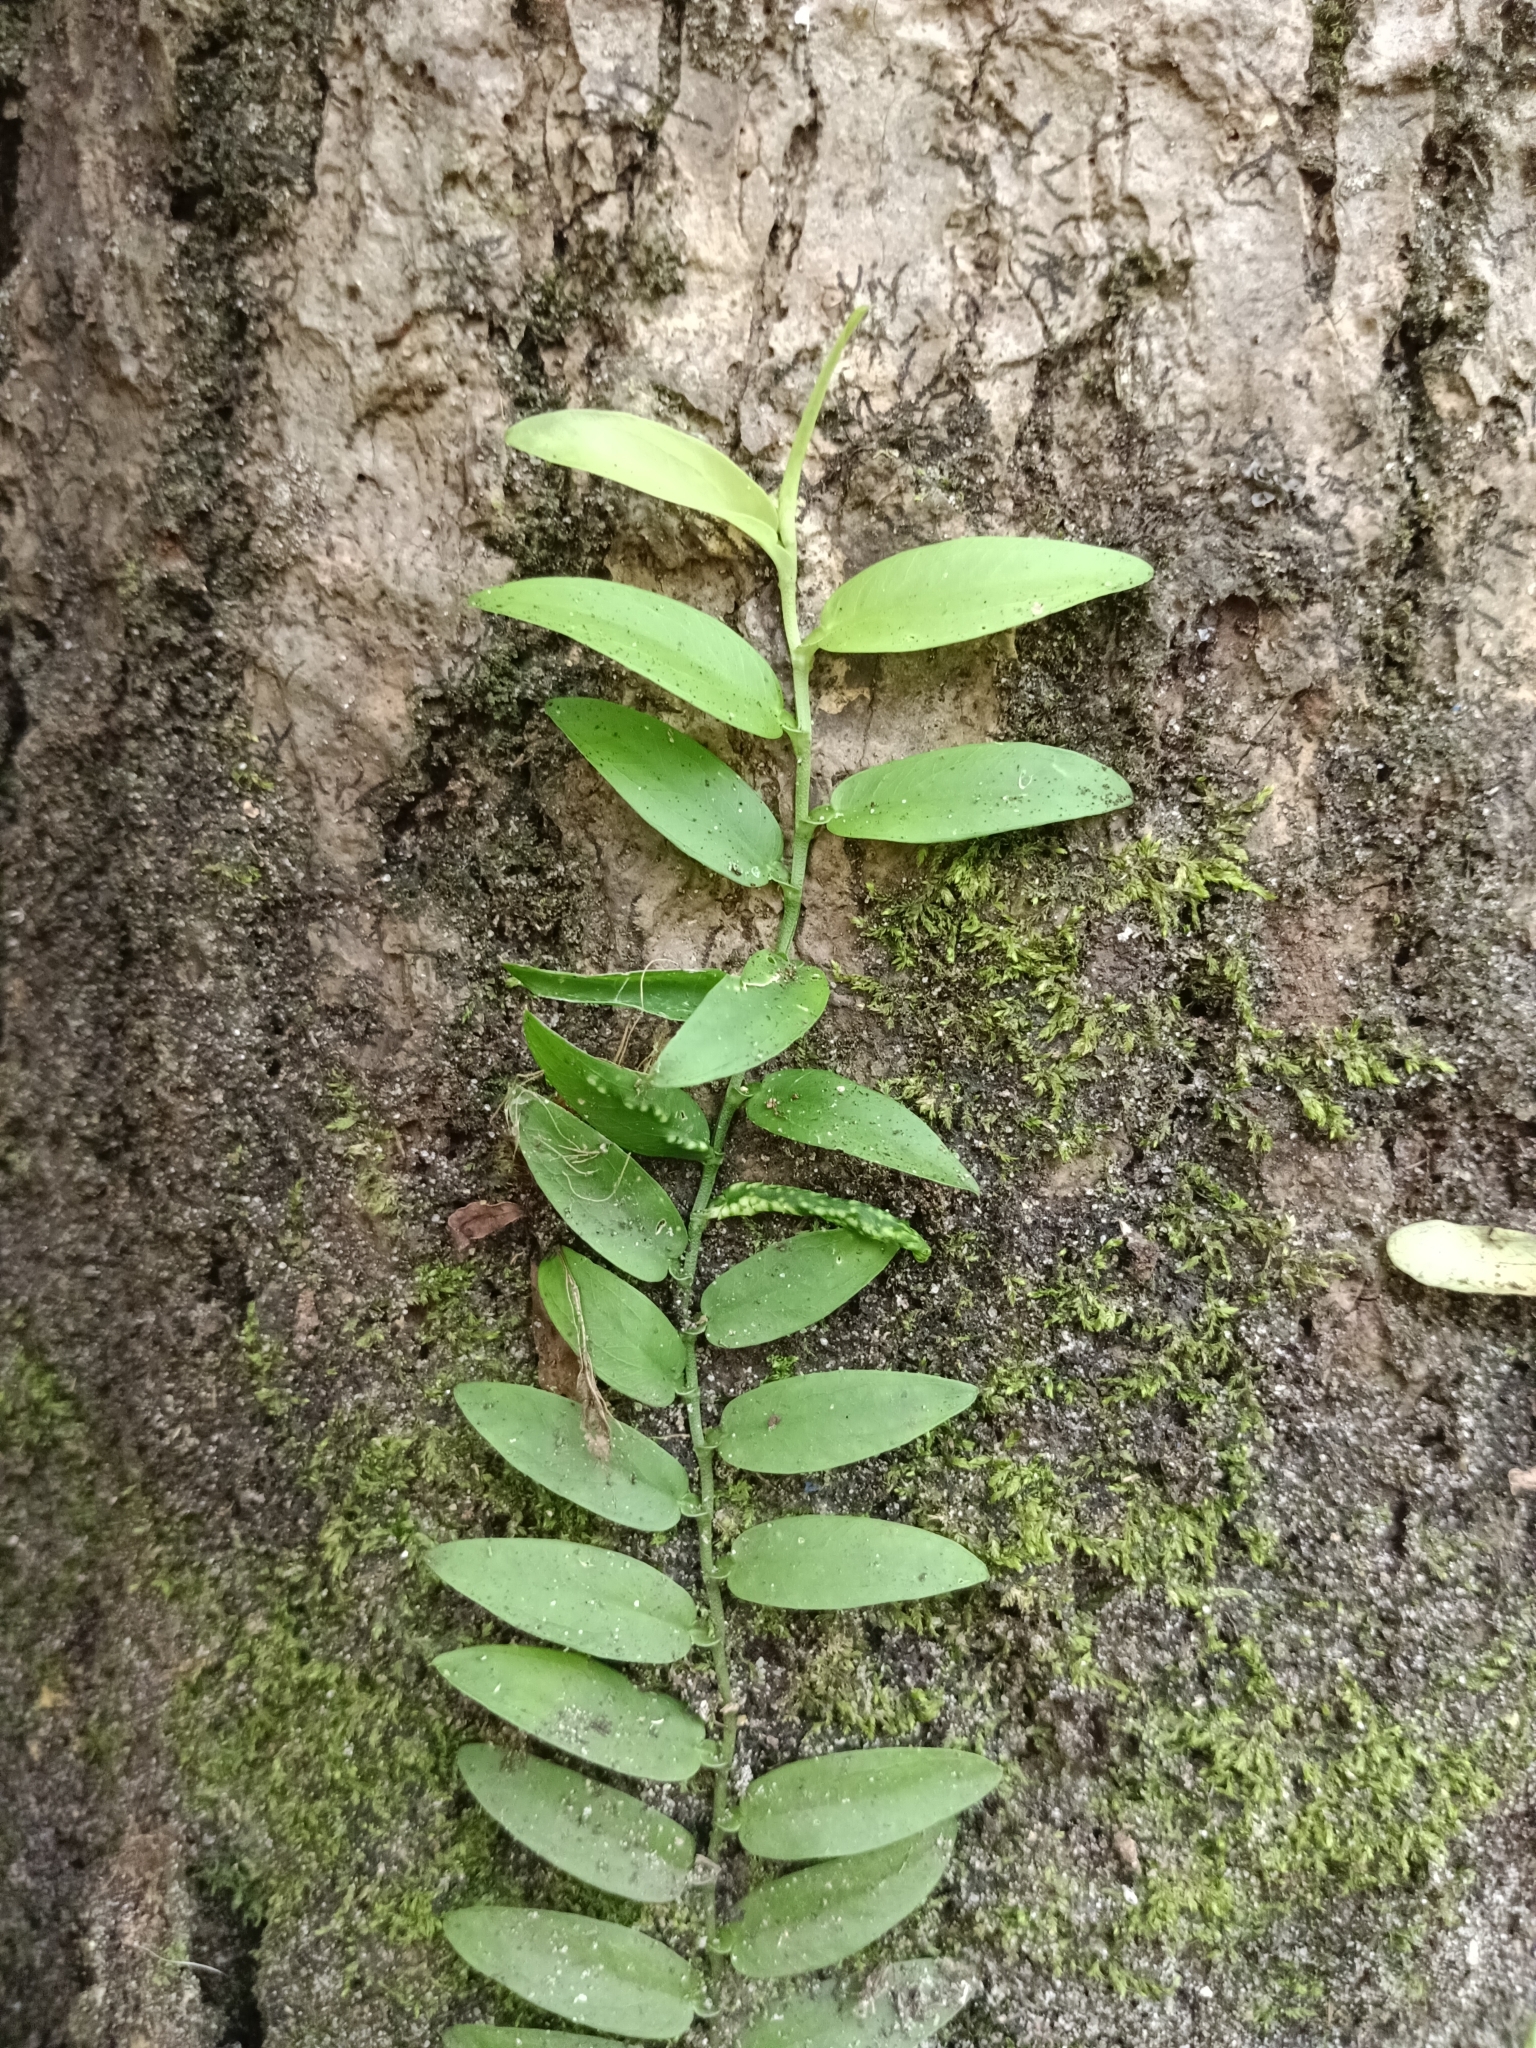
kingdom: Plantae
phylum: Tracheophyta
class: Liliopsida
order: Alismatales
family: Araceae
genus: Pothos
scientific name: Pothos chinensis
